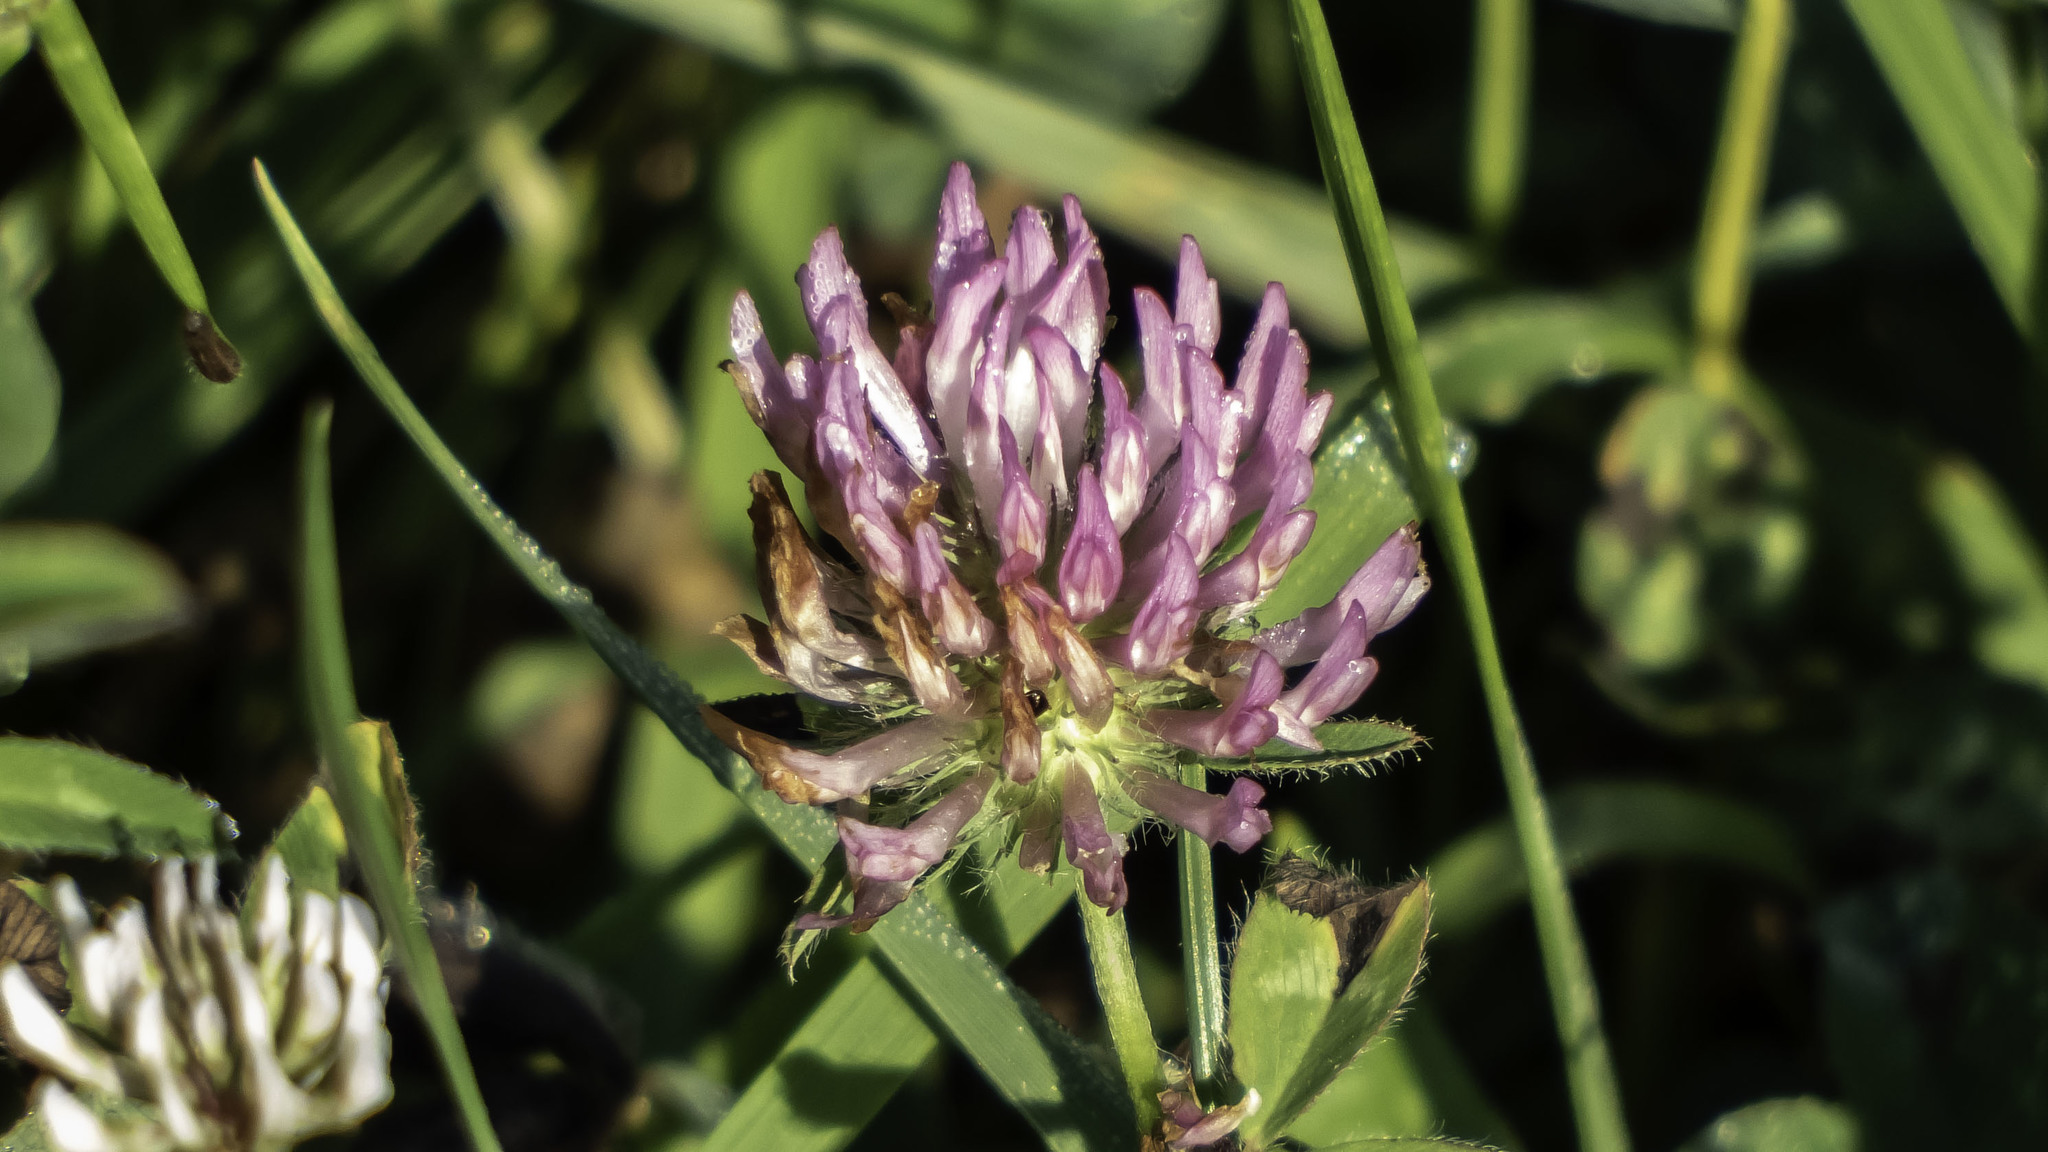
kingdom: Plantae
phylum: Tracheophyta
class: Magnoliopsida
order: Fabales
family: Fabaceae
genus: Trifolium
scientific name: Trifolium pratense
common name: Red clover
